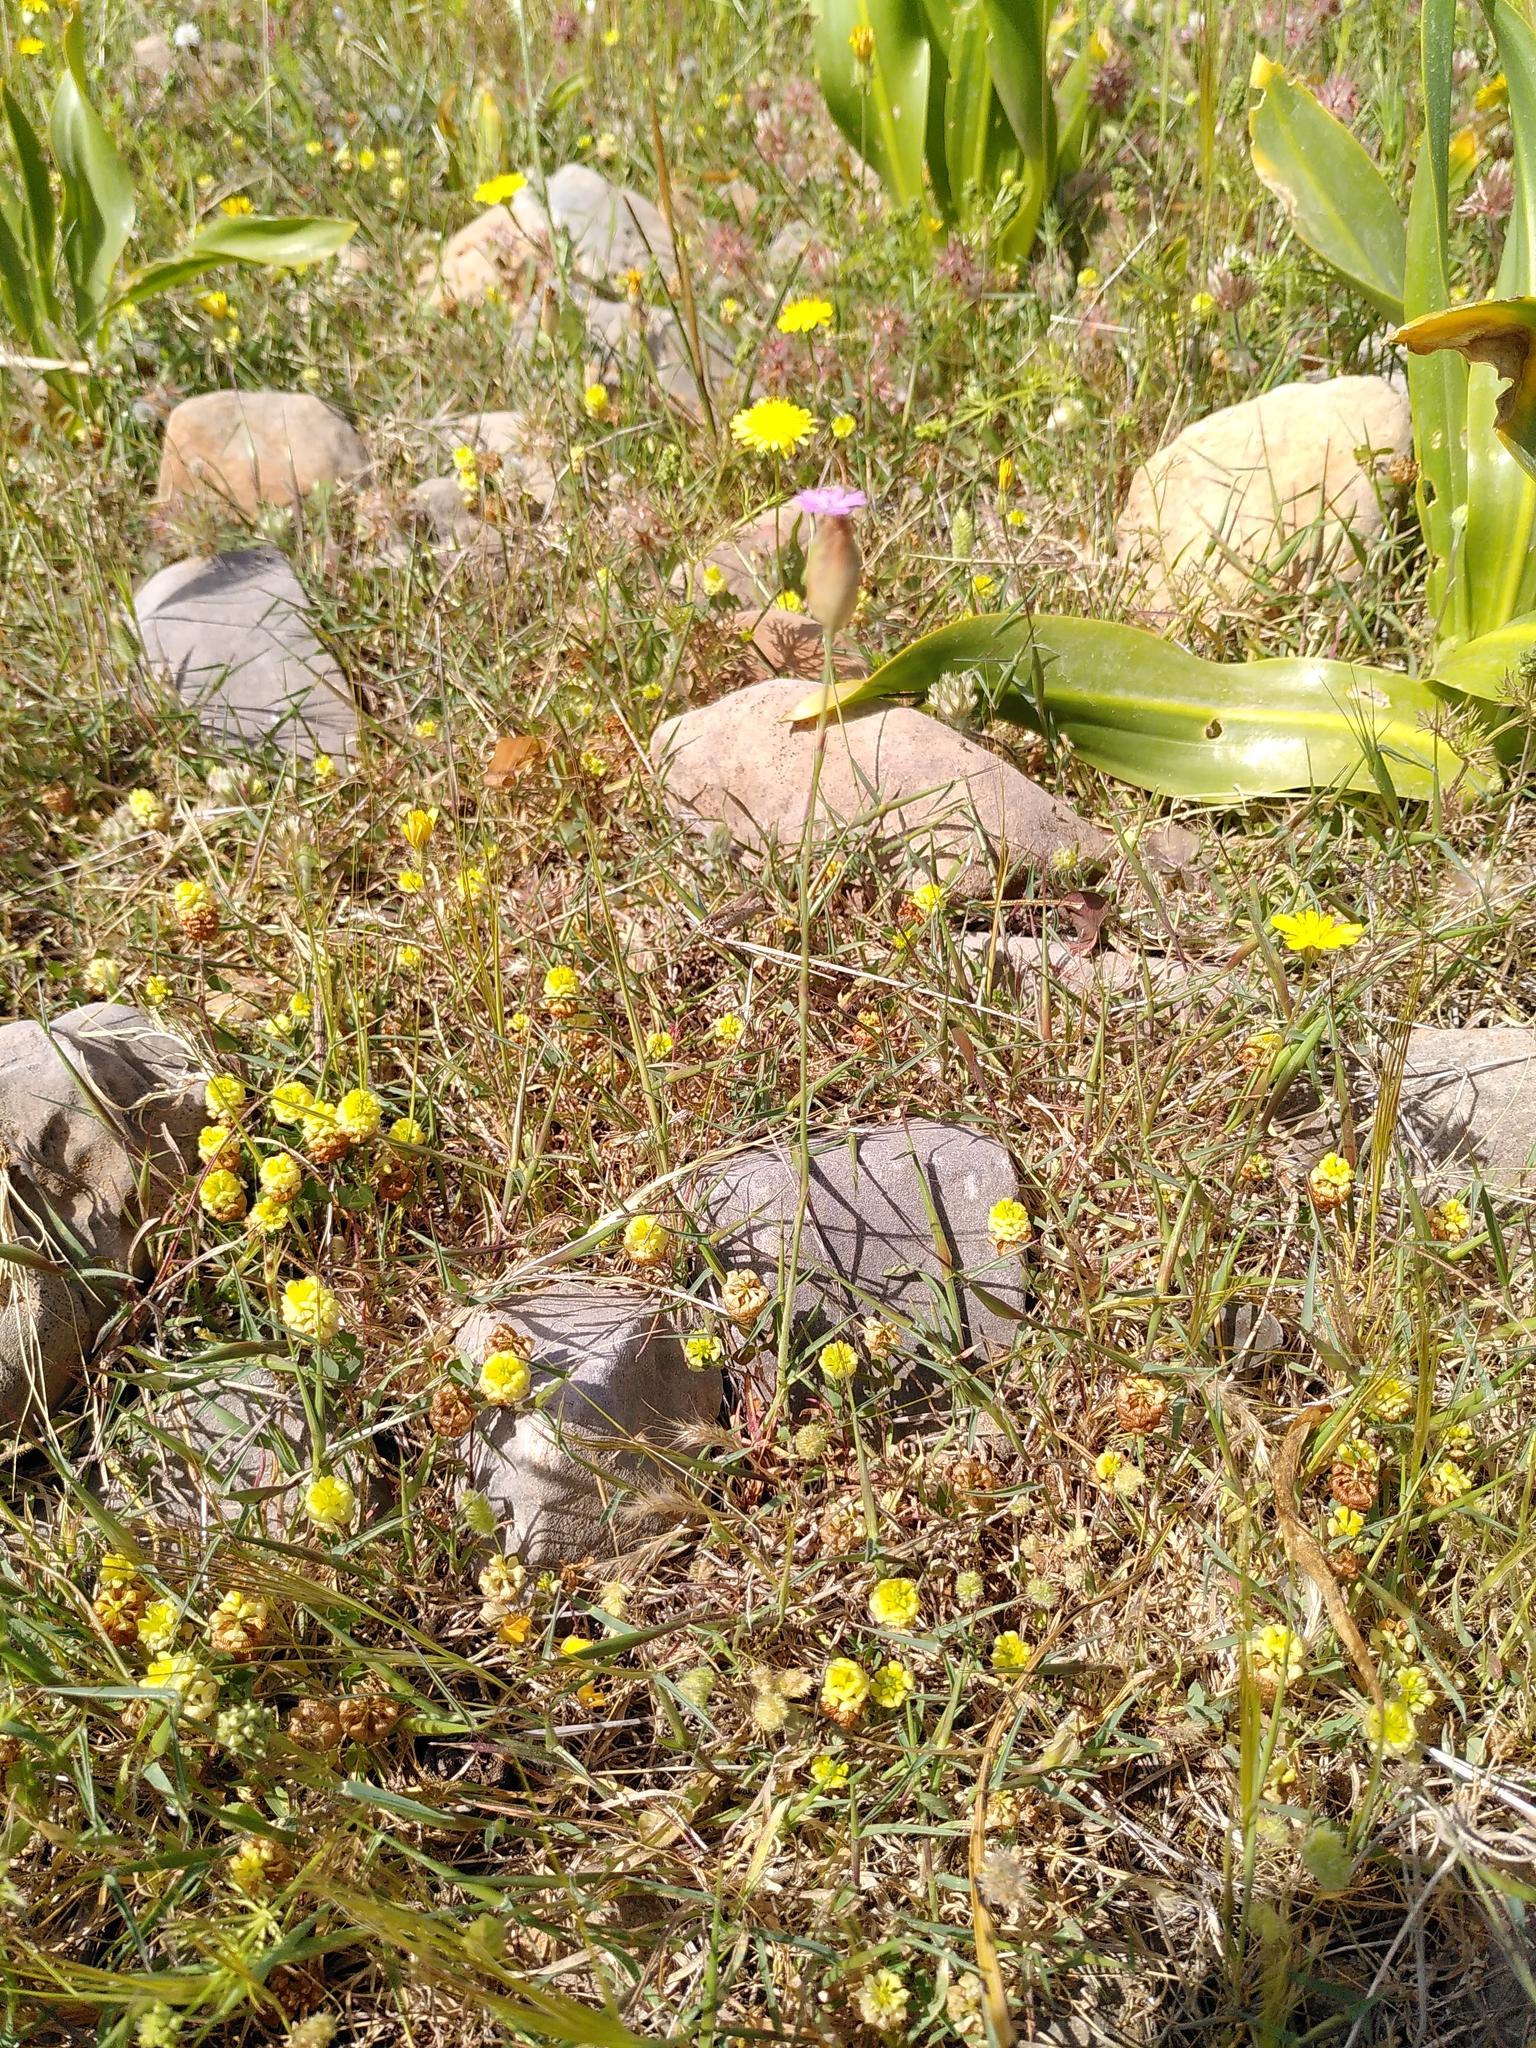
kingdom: Plantae
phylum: Tracheophyta
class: Magnoliopsida
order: Caryophyllales
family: Caryophyllaceae
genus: Petrorhagia
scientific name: Petrorhagia dubia
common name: Hairypink
